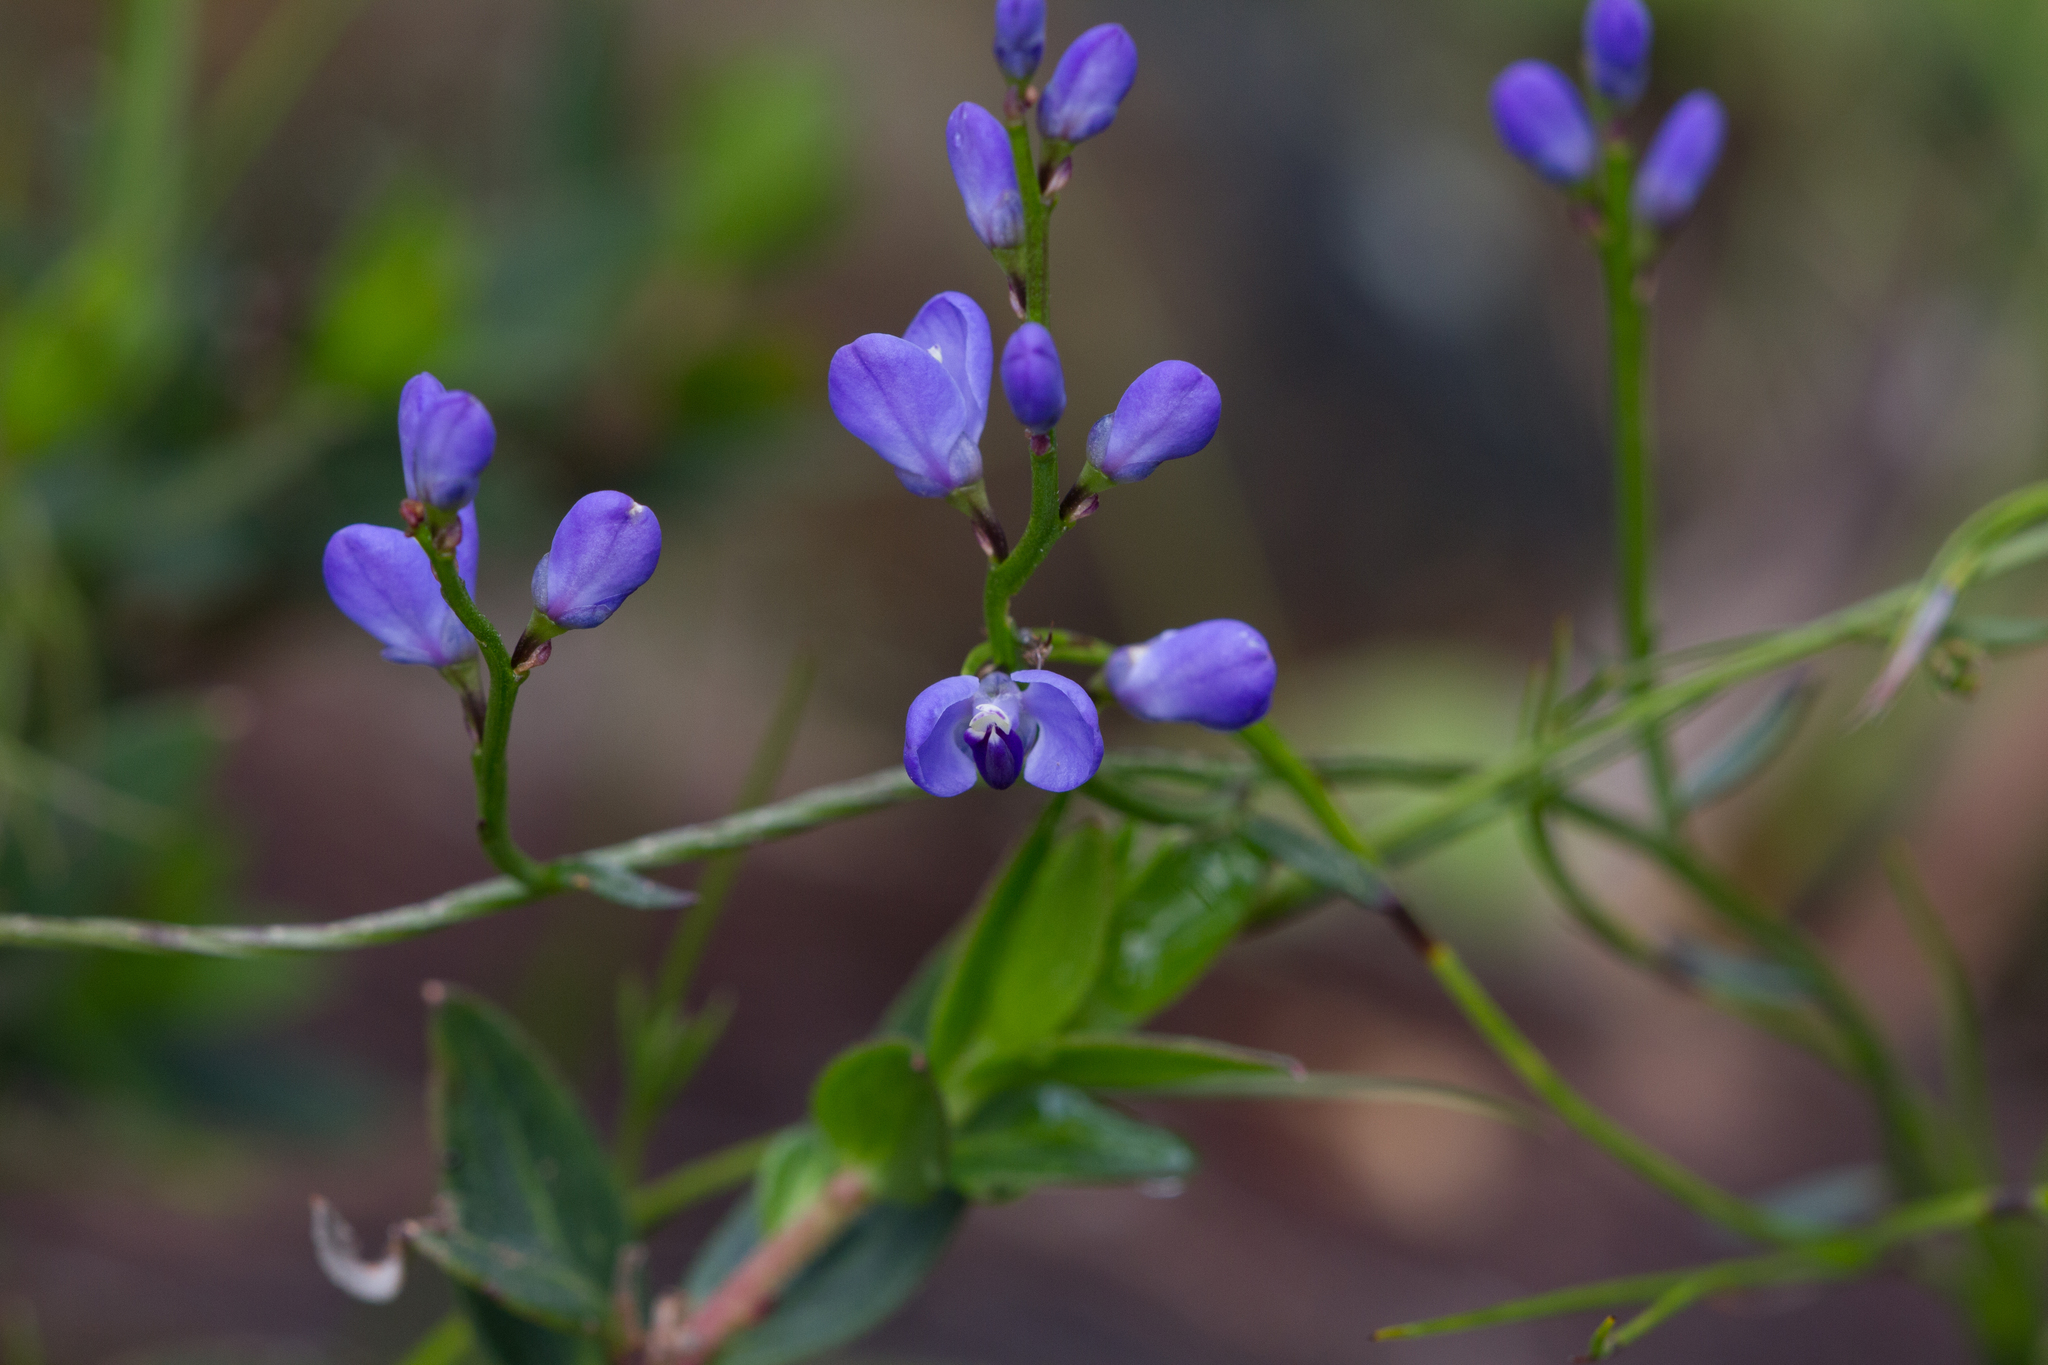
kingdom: Plantae
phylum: Tracheophyta
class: Magnoliopsida
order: Fabales
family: Polygalaceae
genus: Comesperma
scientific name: Comesperma volubile
